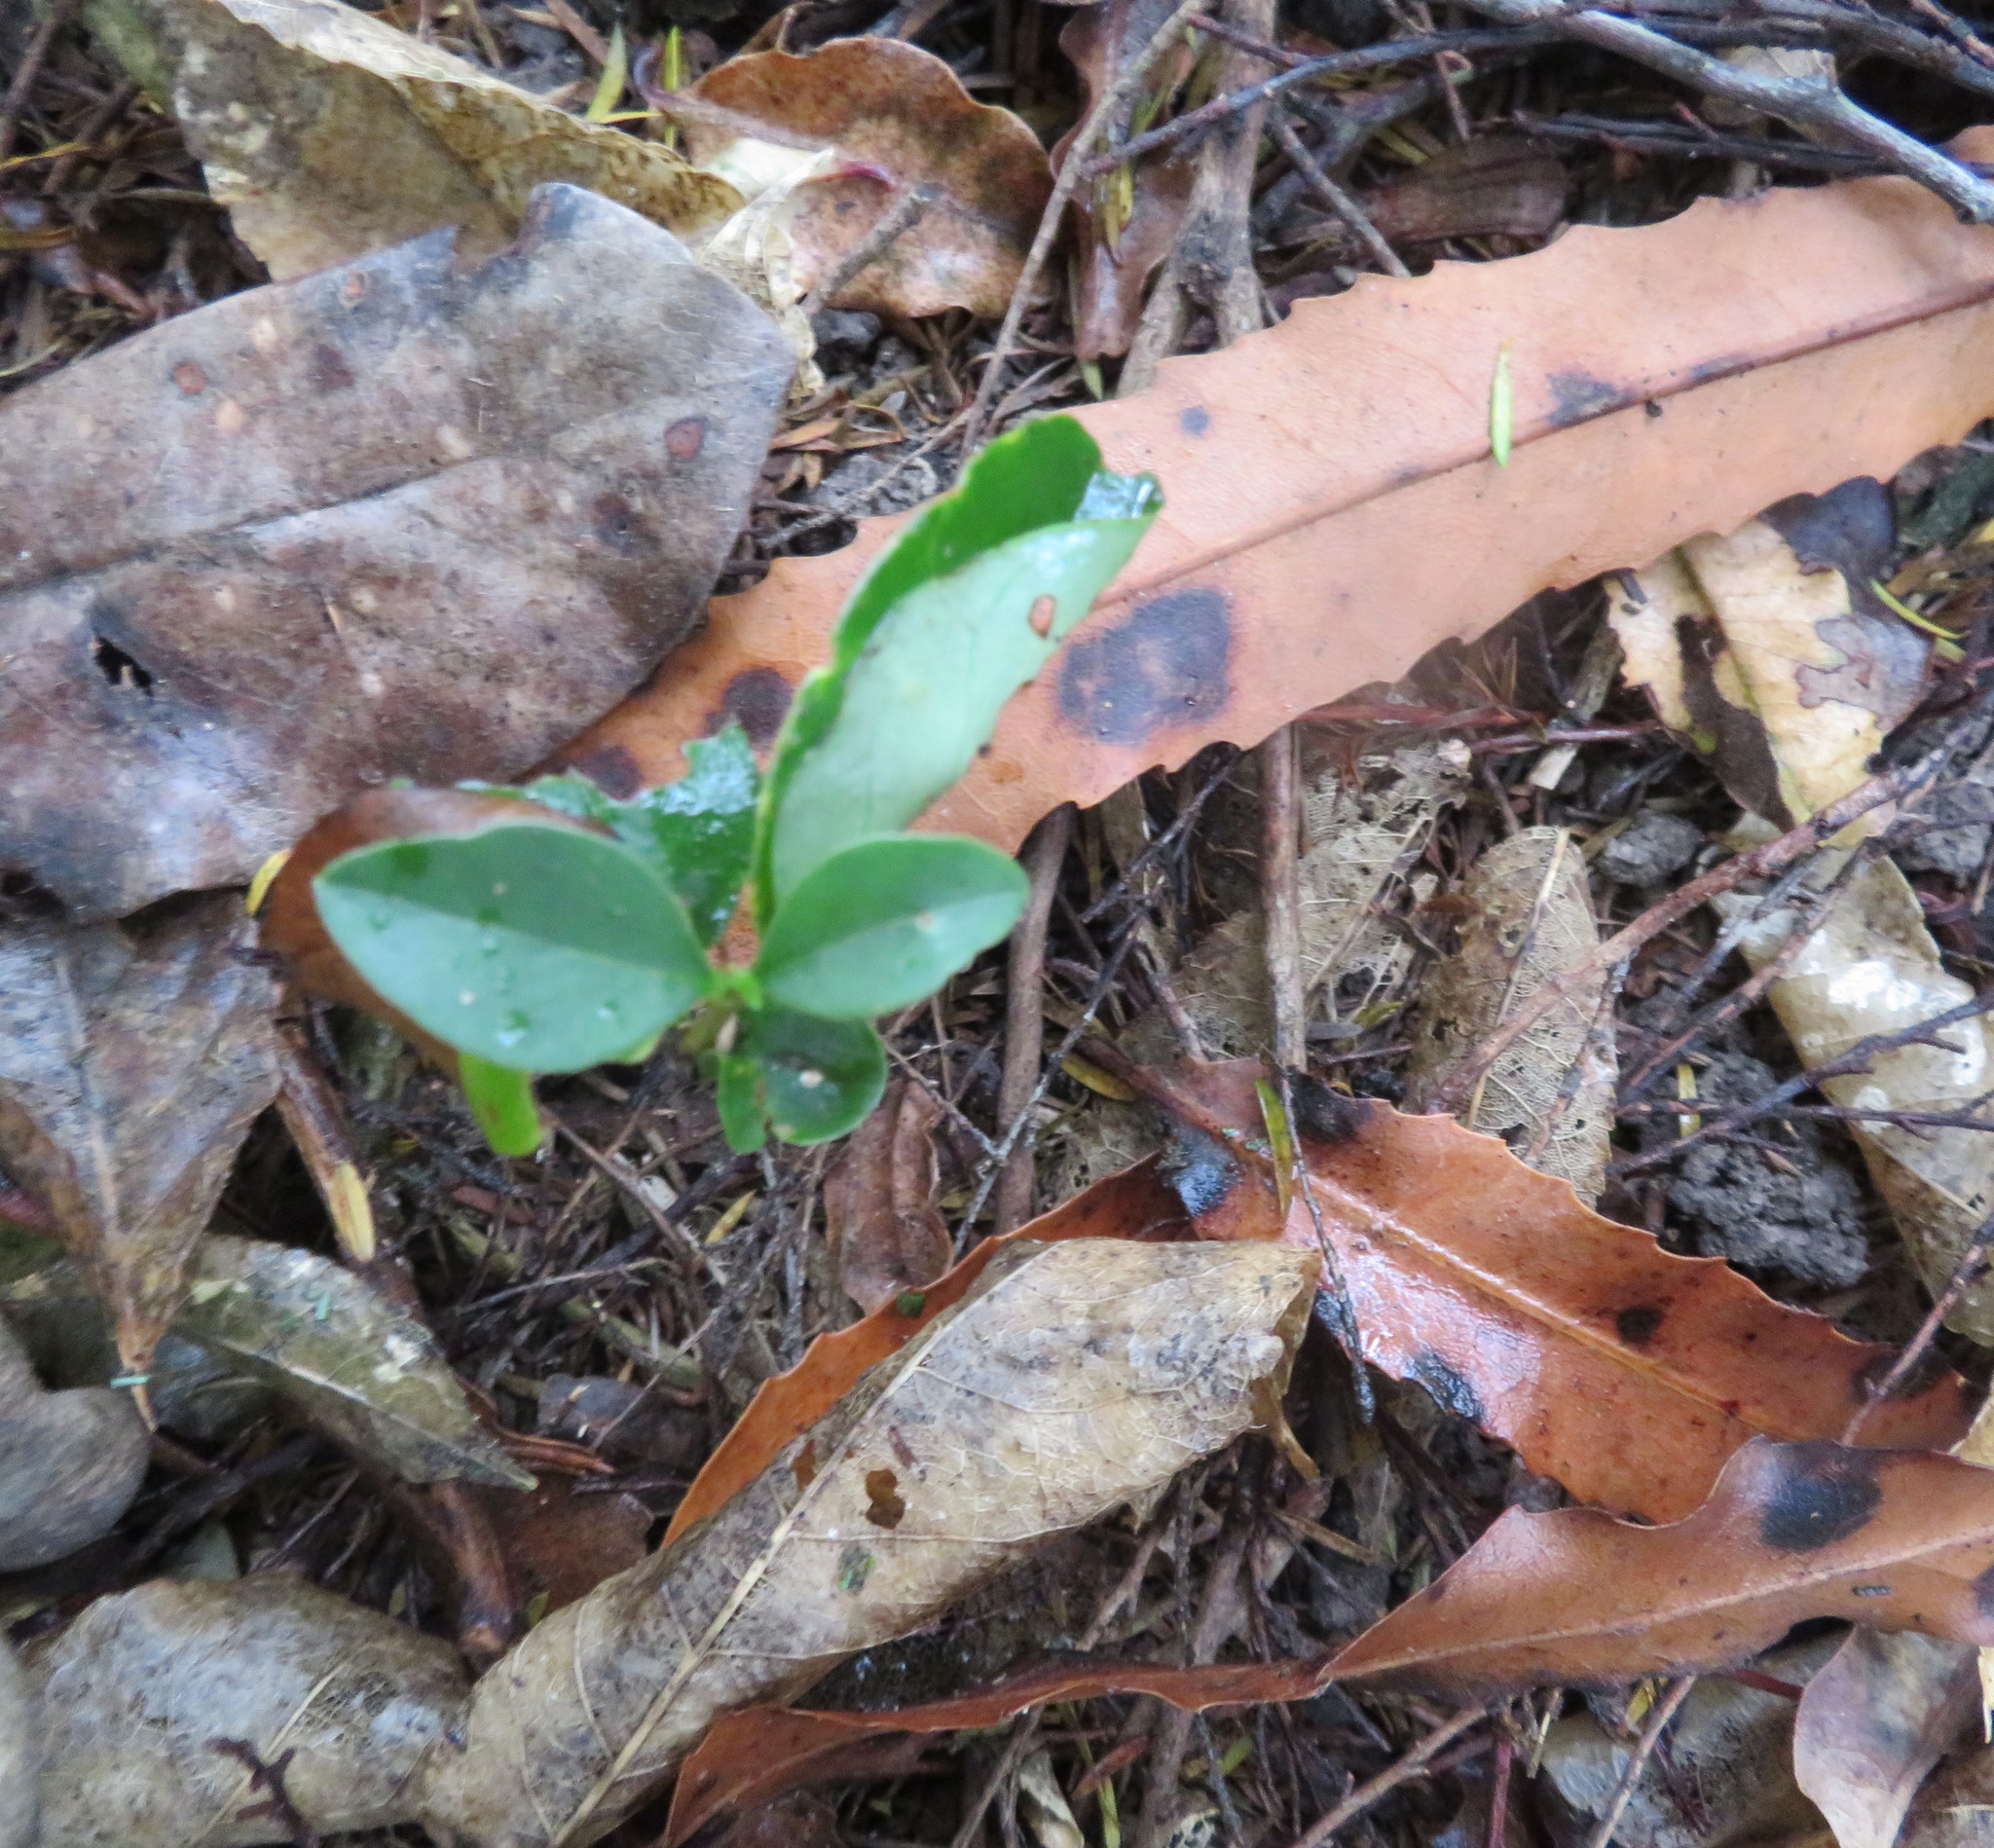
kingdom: Plantae
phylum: Tracheophyta
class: Magnoliopsida
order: Lamiales
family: Oleaceae
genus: Ligustrum
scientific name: Ligustrum lucidum
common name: Glossy privet
